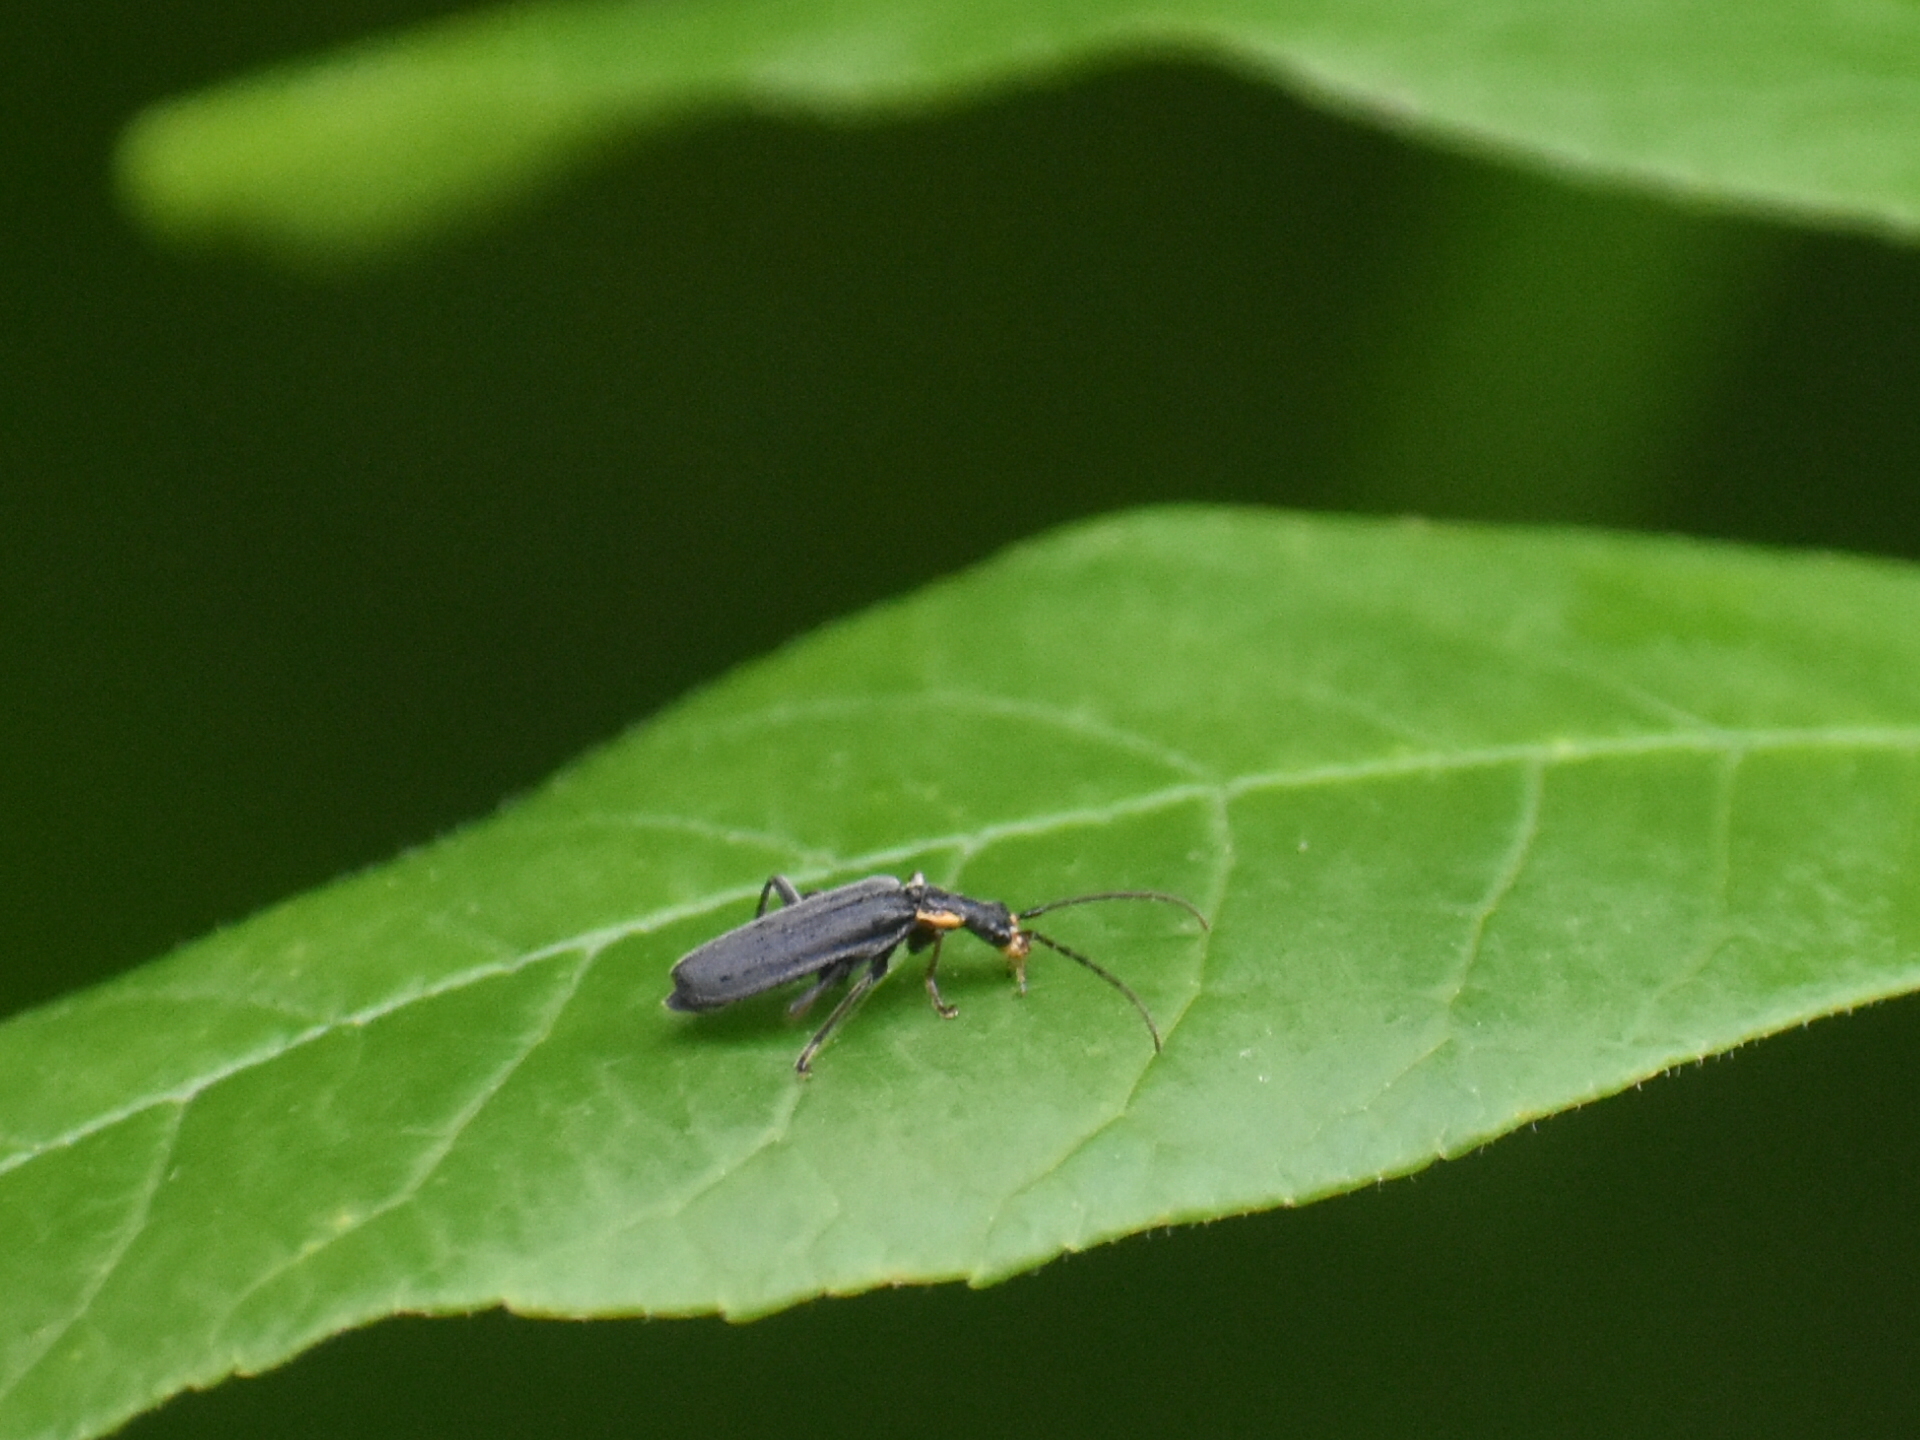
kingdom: Animalia
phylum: Arthropoda
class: Insecta
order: Coleoptera
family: Cantharidae
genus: Podabrus
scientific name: Podabrus rugosulus
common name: Wrinkled soldier beetle
